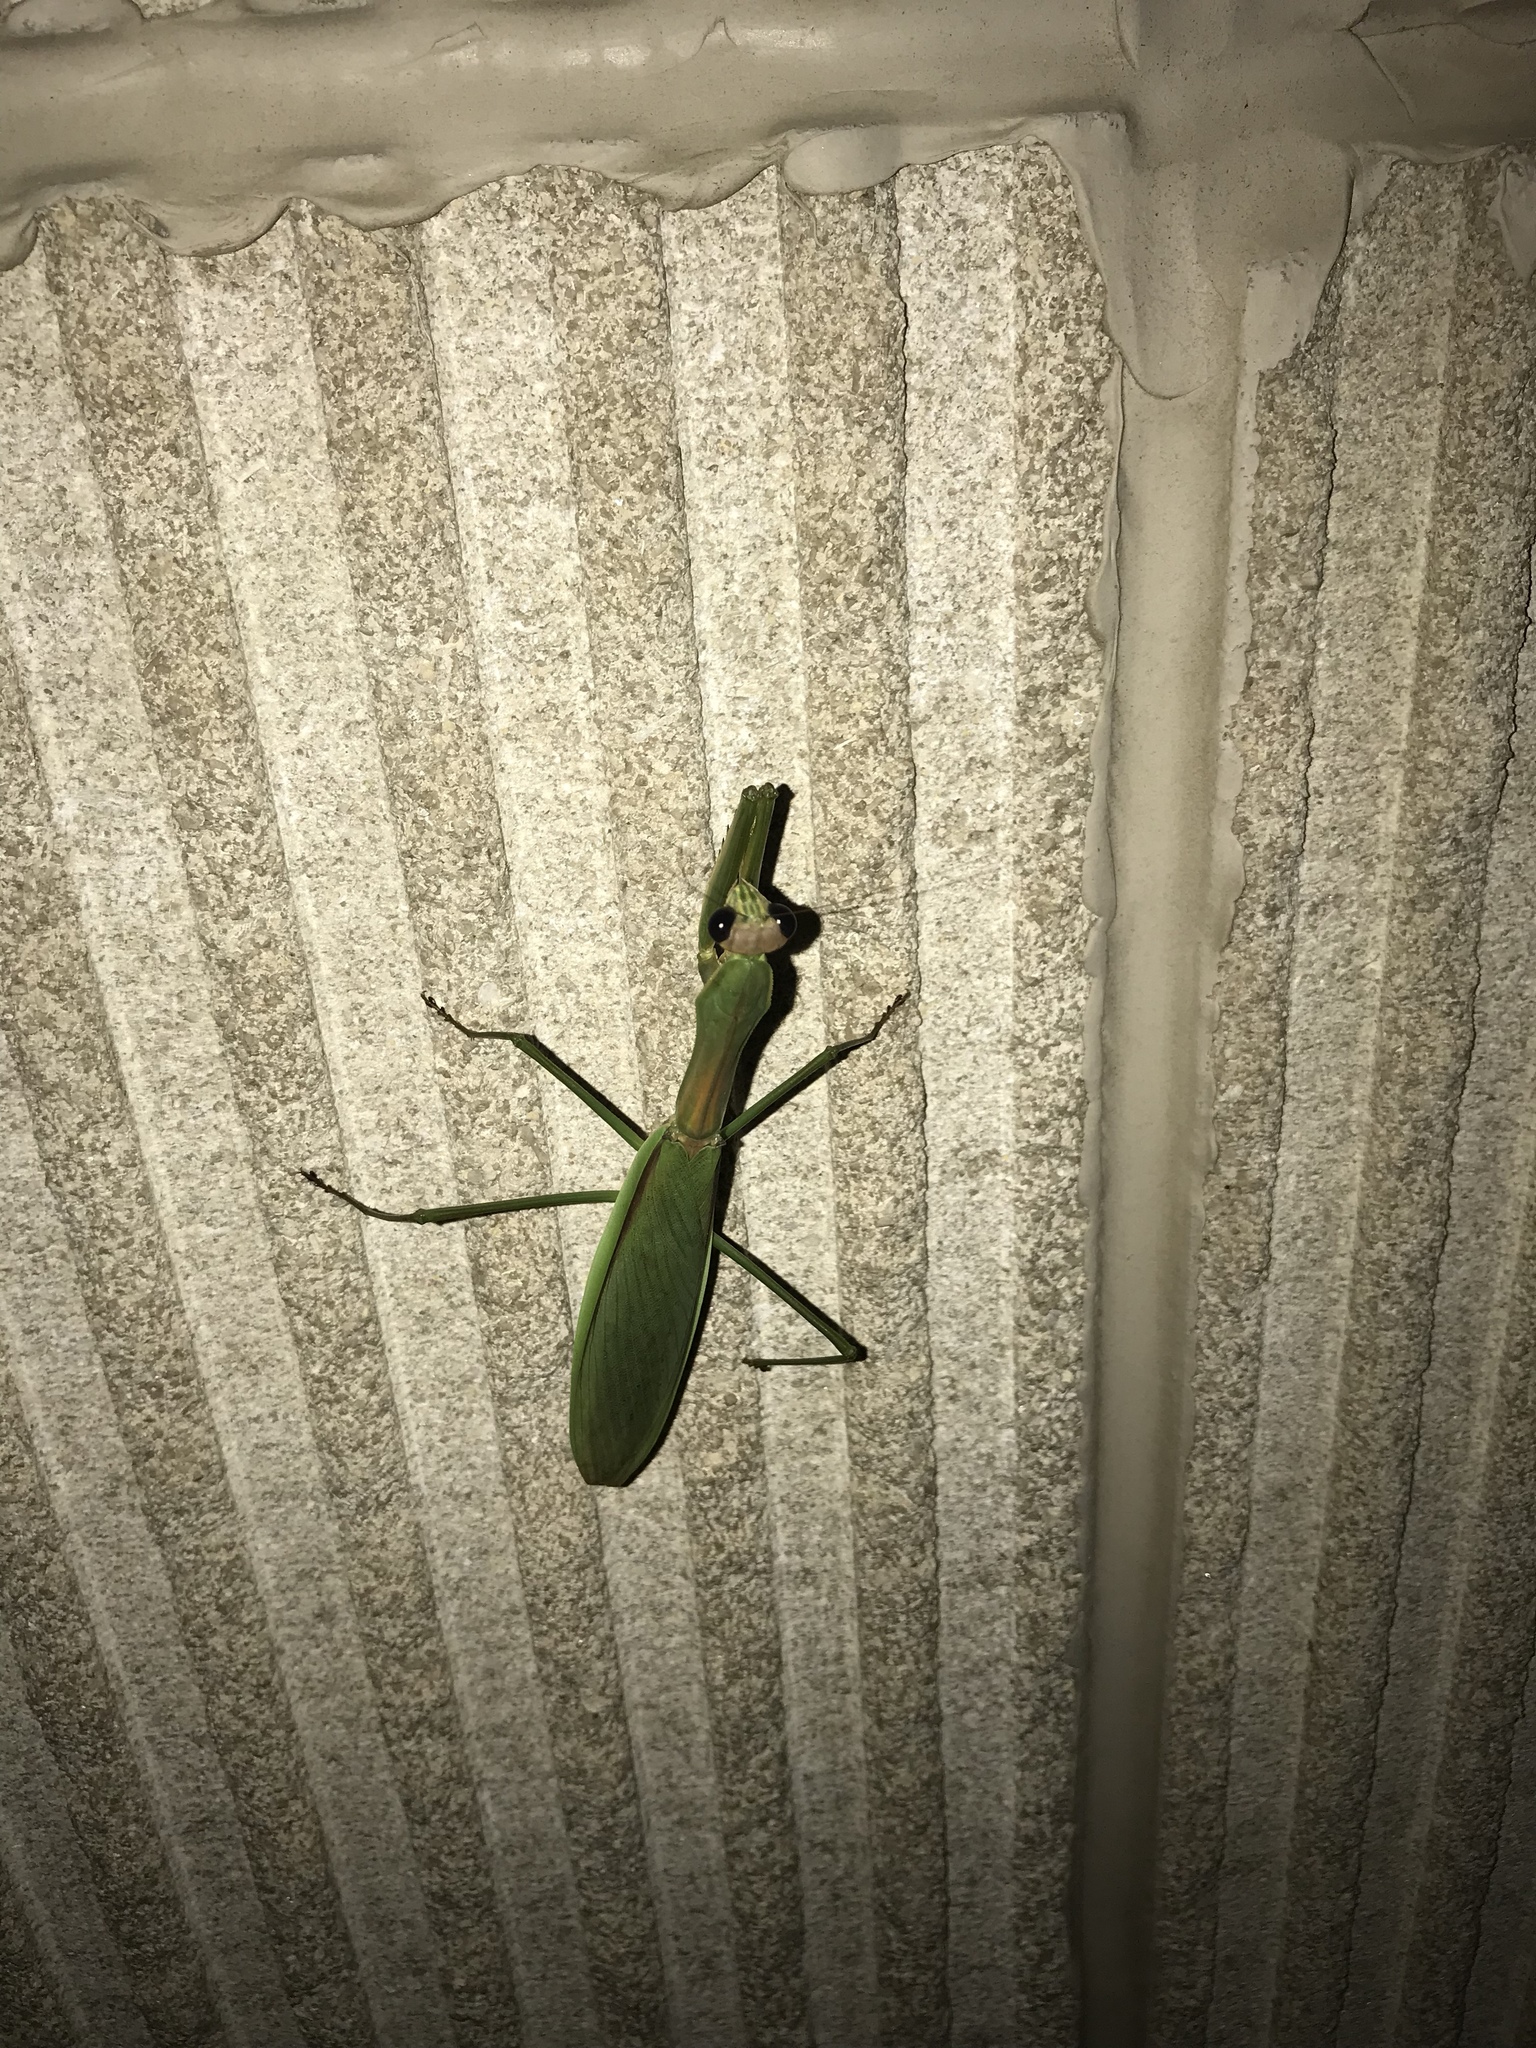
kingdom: Animalia
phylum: Arthropoda
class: Insecta
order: Mantodea
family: Mantidae
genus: Tenodera
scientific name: Tenodera sinensis
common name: Chinese mantis
